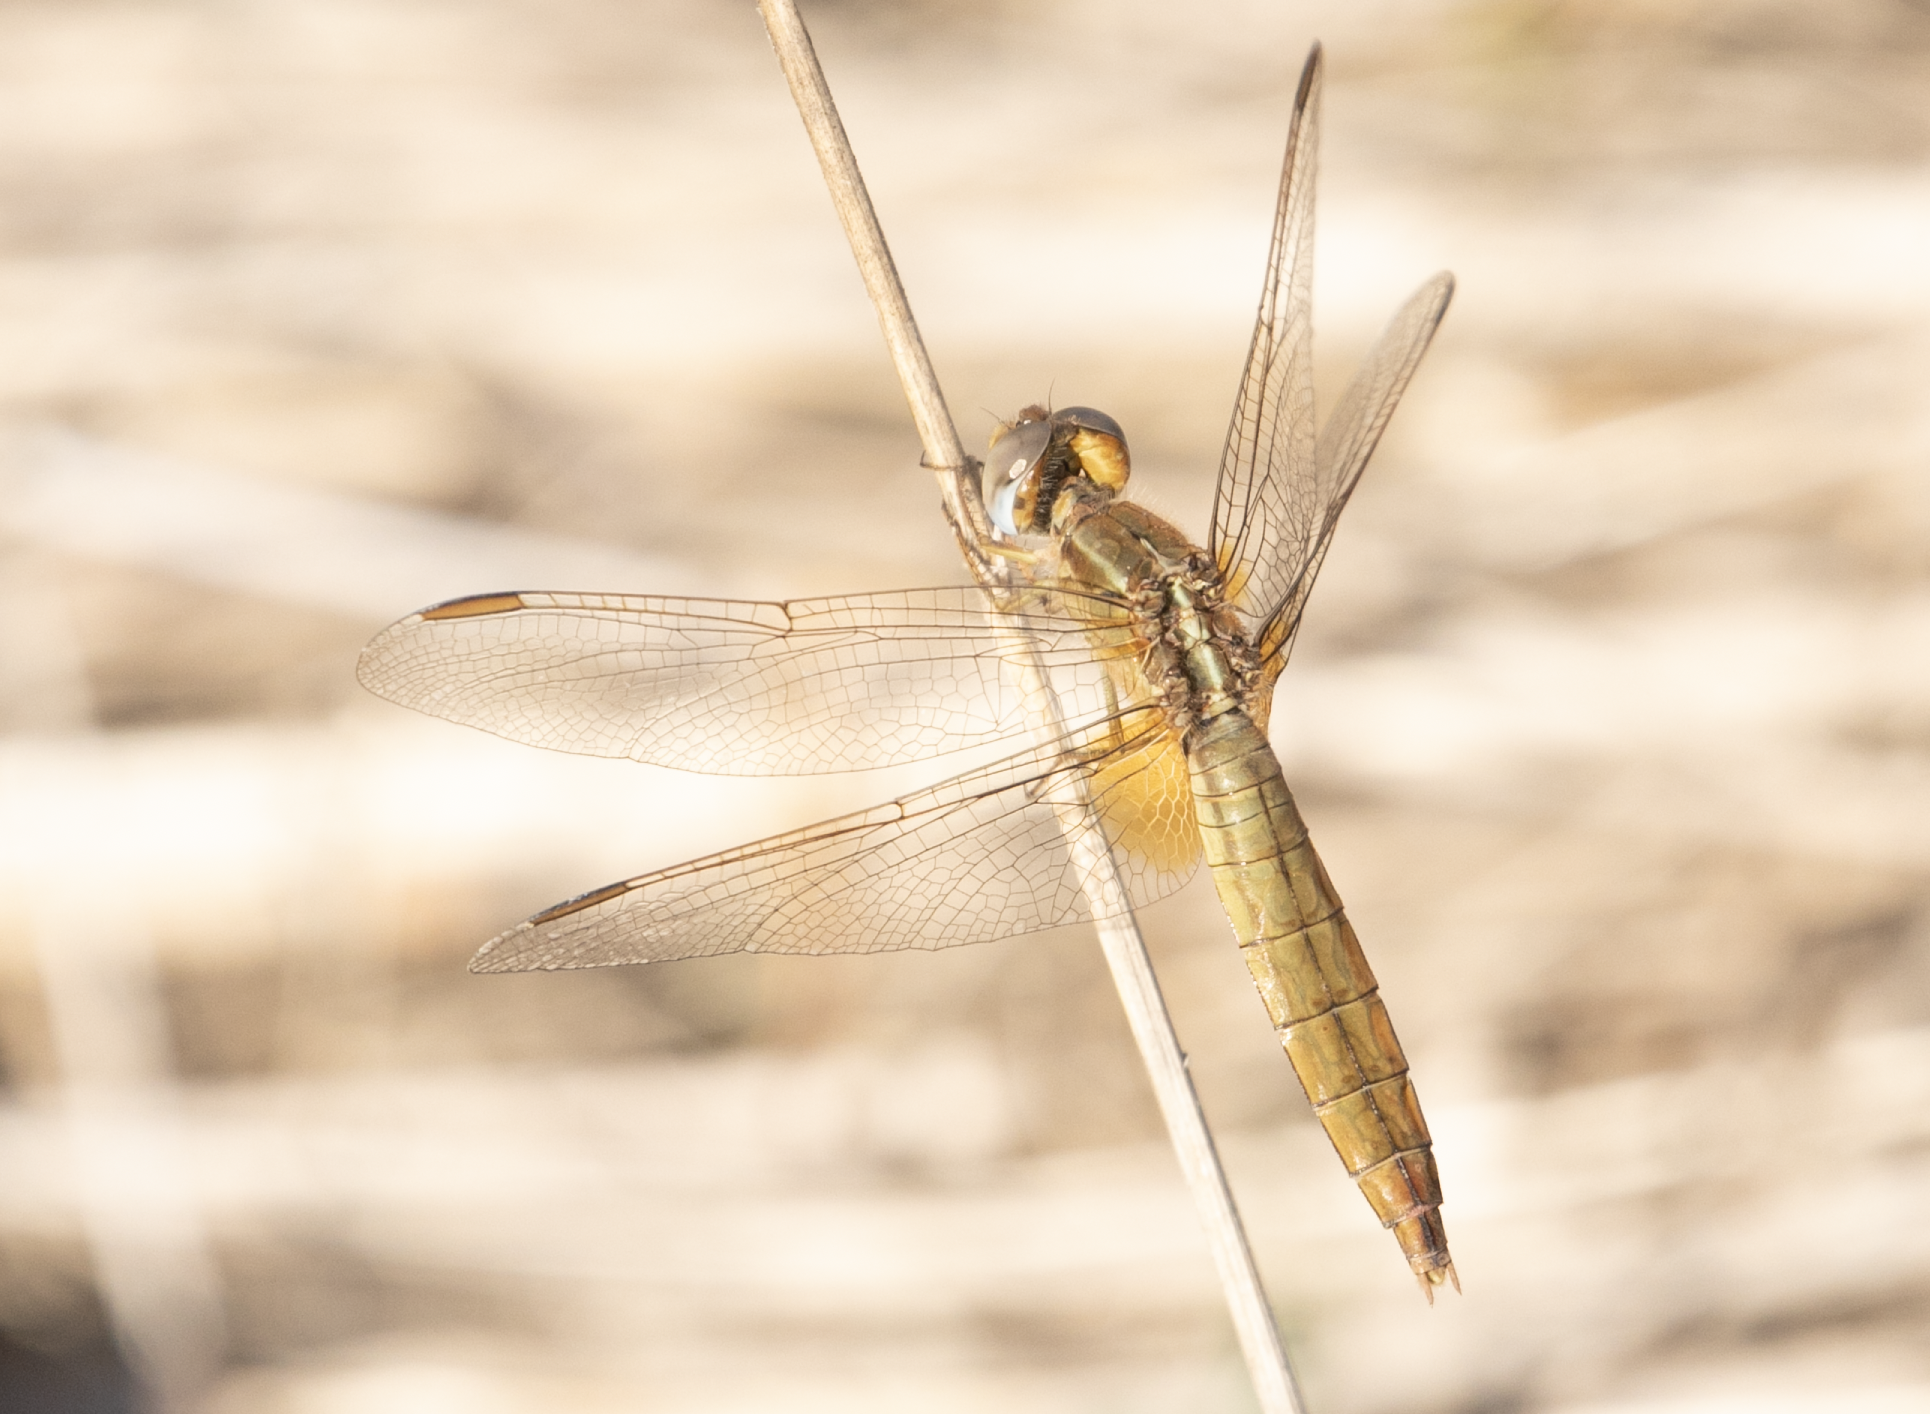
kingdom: Animalia
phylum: Arthropoda
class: Insecta
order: Odonata
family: Libellulidae
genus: Crocothemis
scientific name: Crocothemis erythraea
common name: Scarlet dragonfly
